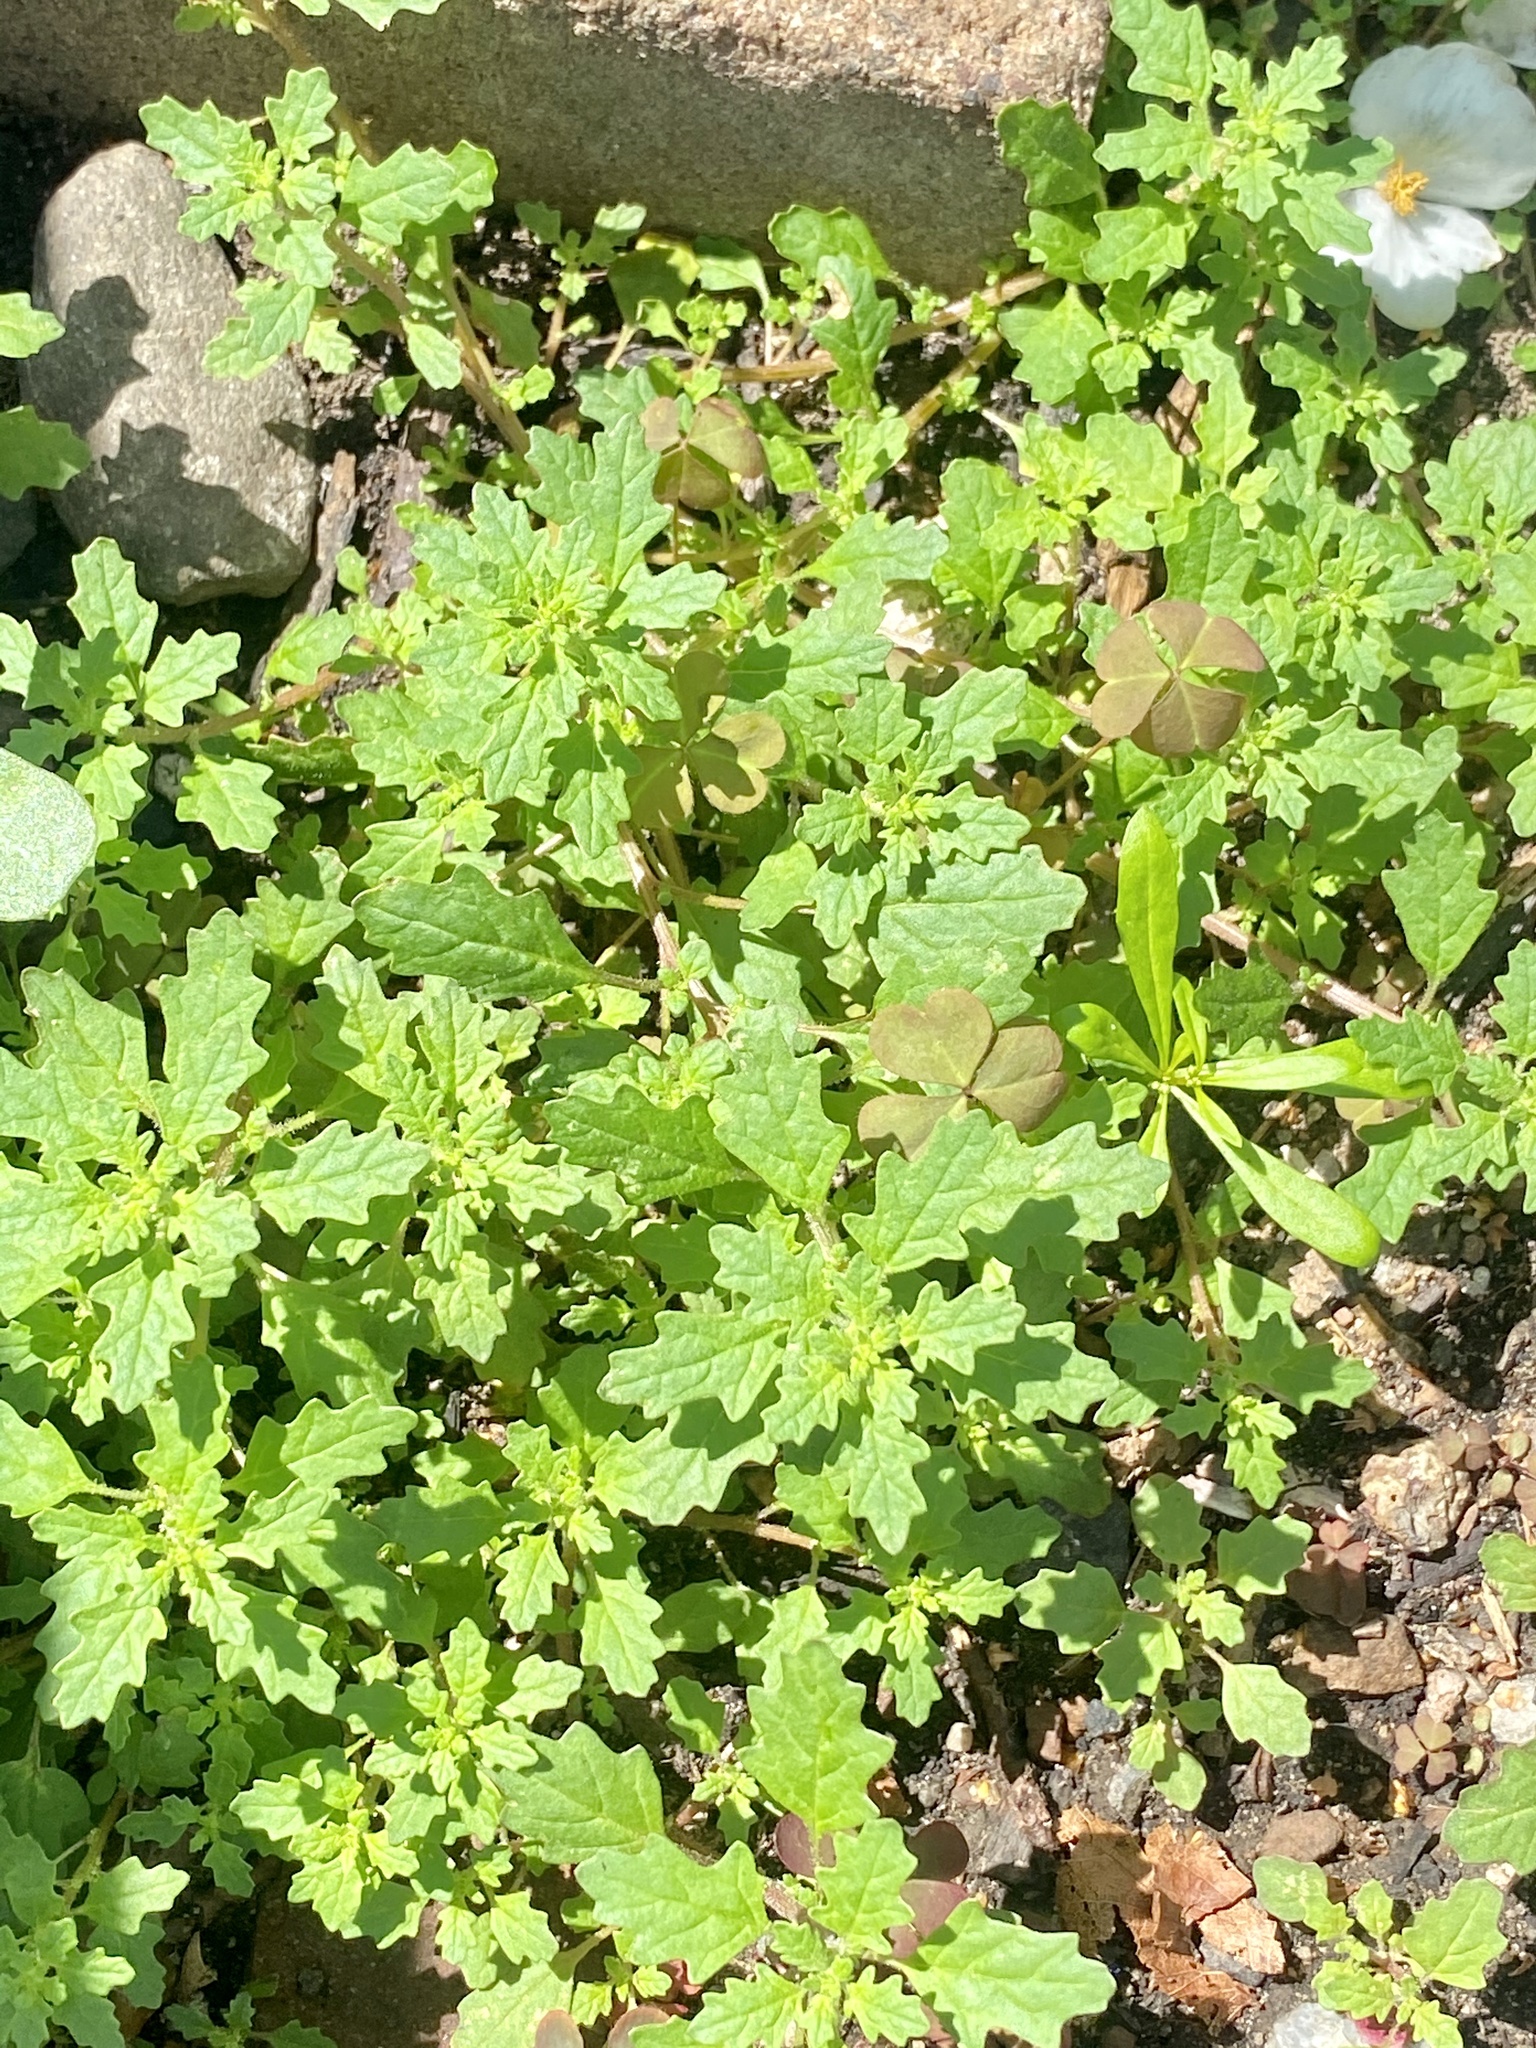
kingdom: Plantae
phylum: Tracheophyta
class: Magnoliopsida
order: Caryophyllales
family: Amaranthaceae
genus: Dysphania
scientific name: Dysphania pumilio
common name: Clammy goosefoot
